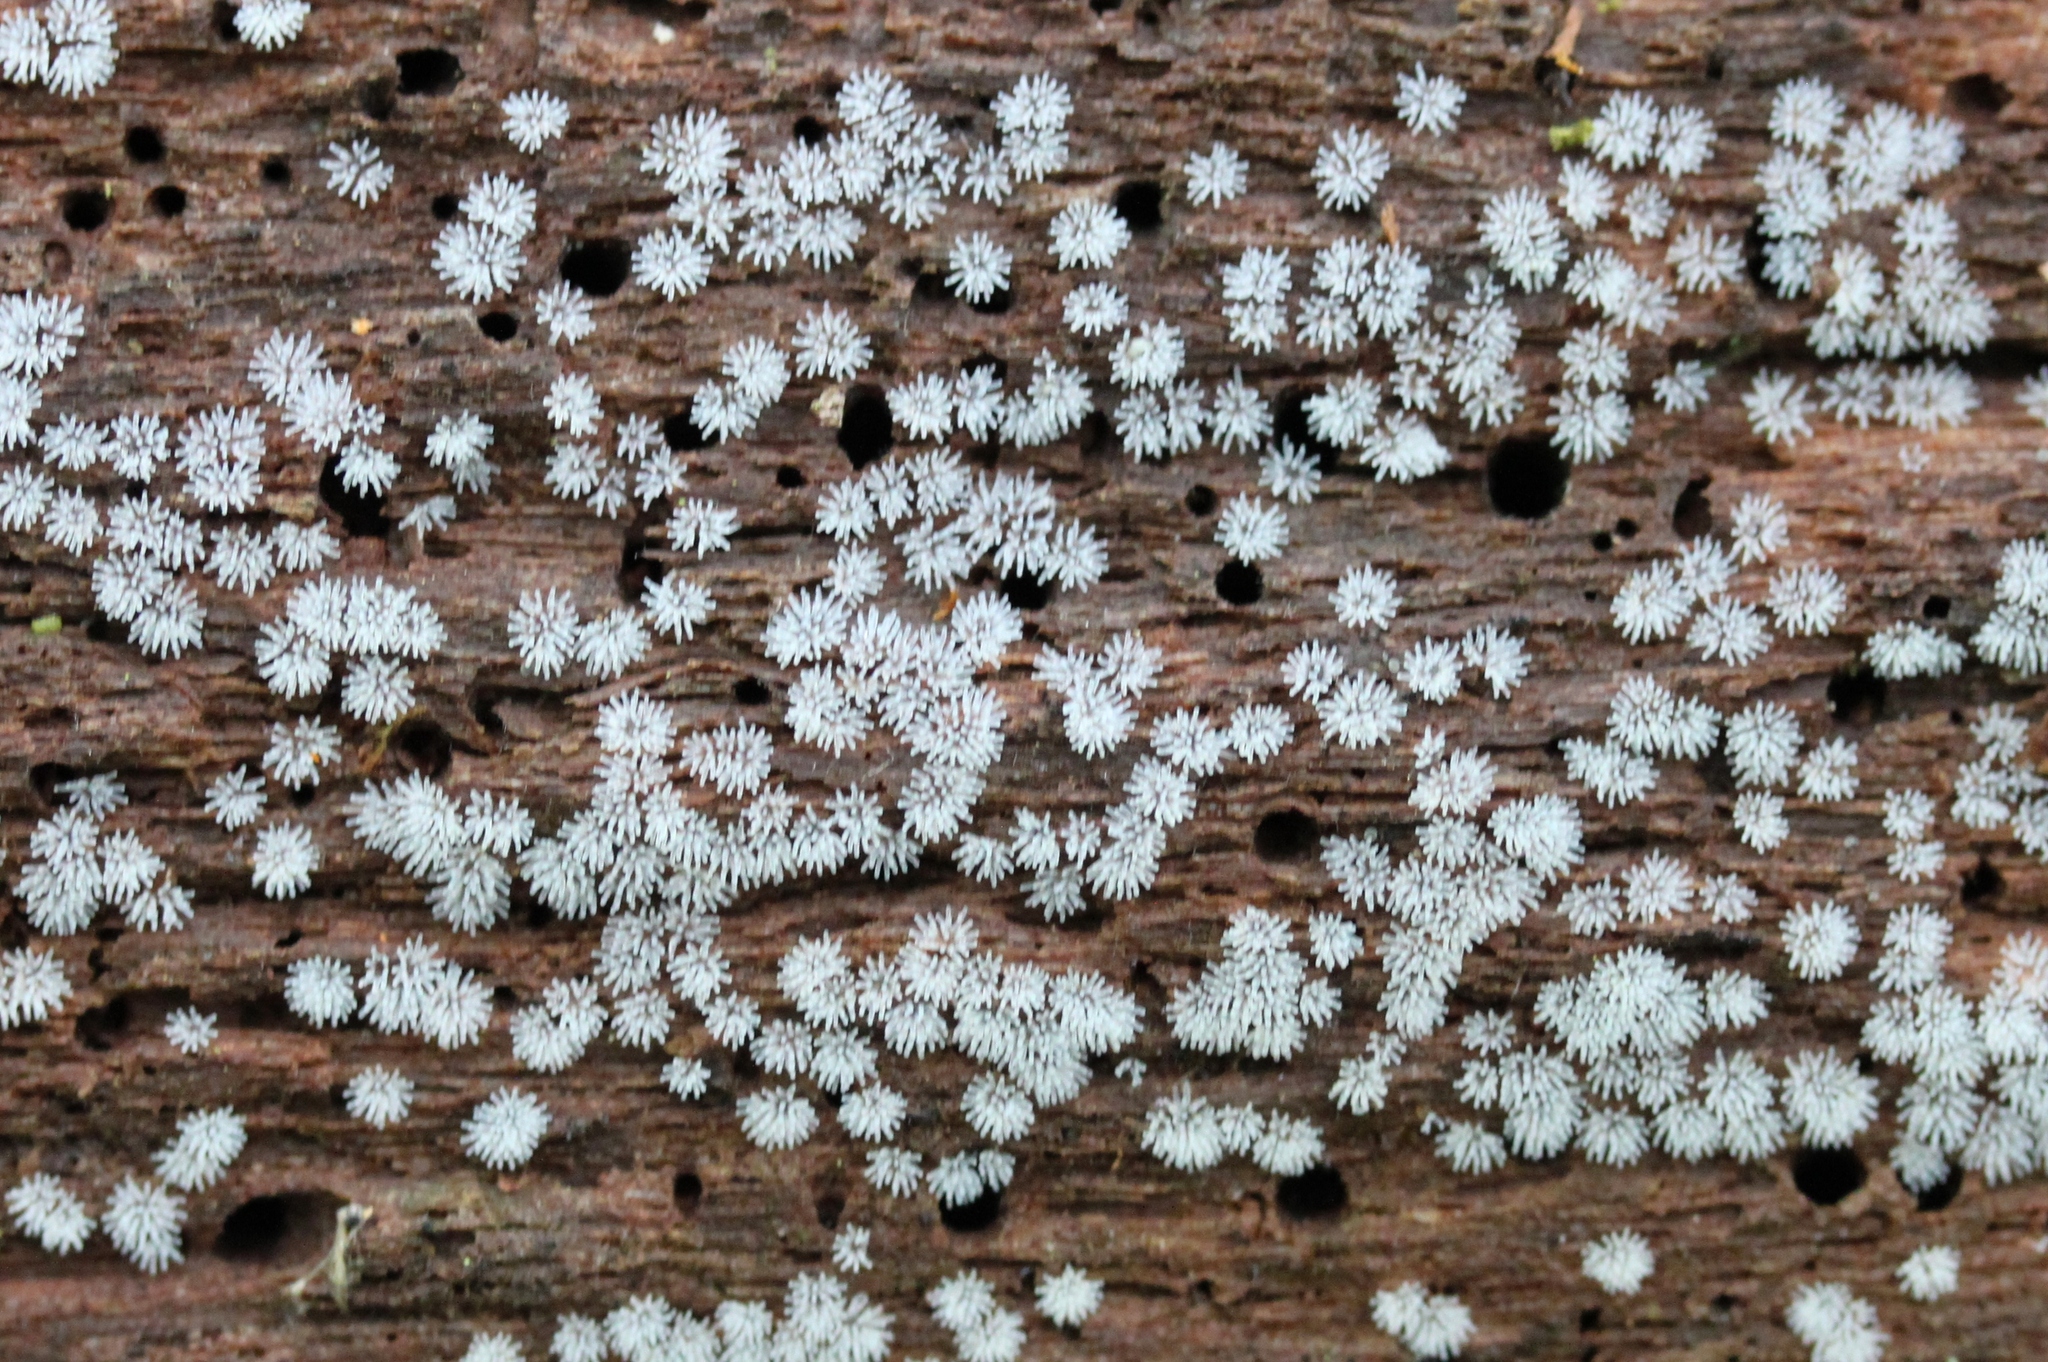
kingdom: Protozoa
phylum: Mycetozoa
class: Protosteliomycetes
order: Ceratiomyxales
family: Ceratiomyxaceae
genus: Ceratiomyxa
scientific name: Ceratiomyxa fruticulosa
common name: Honeycomb coral slime mold
